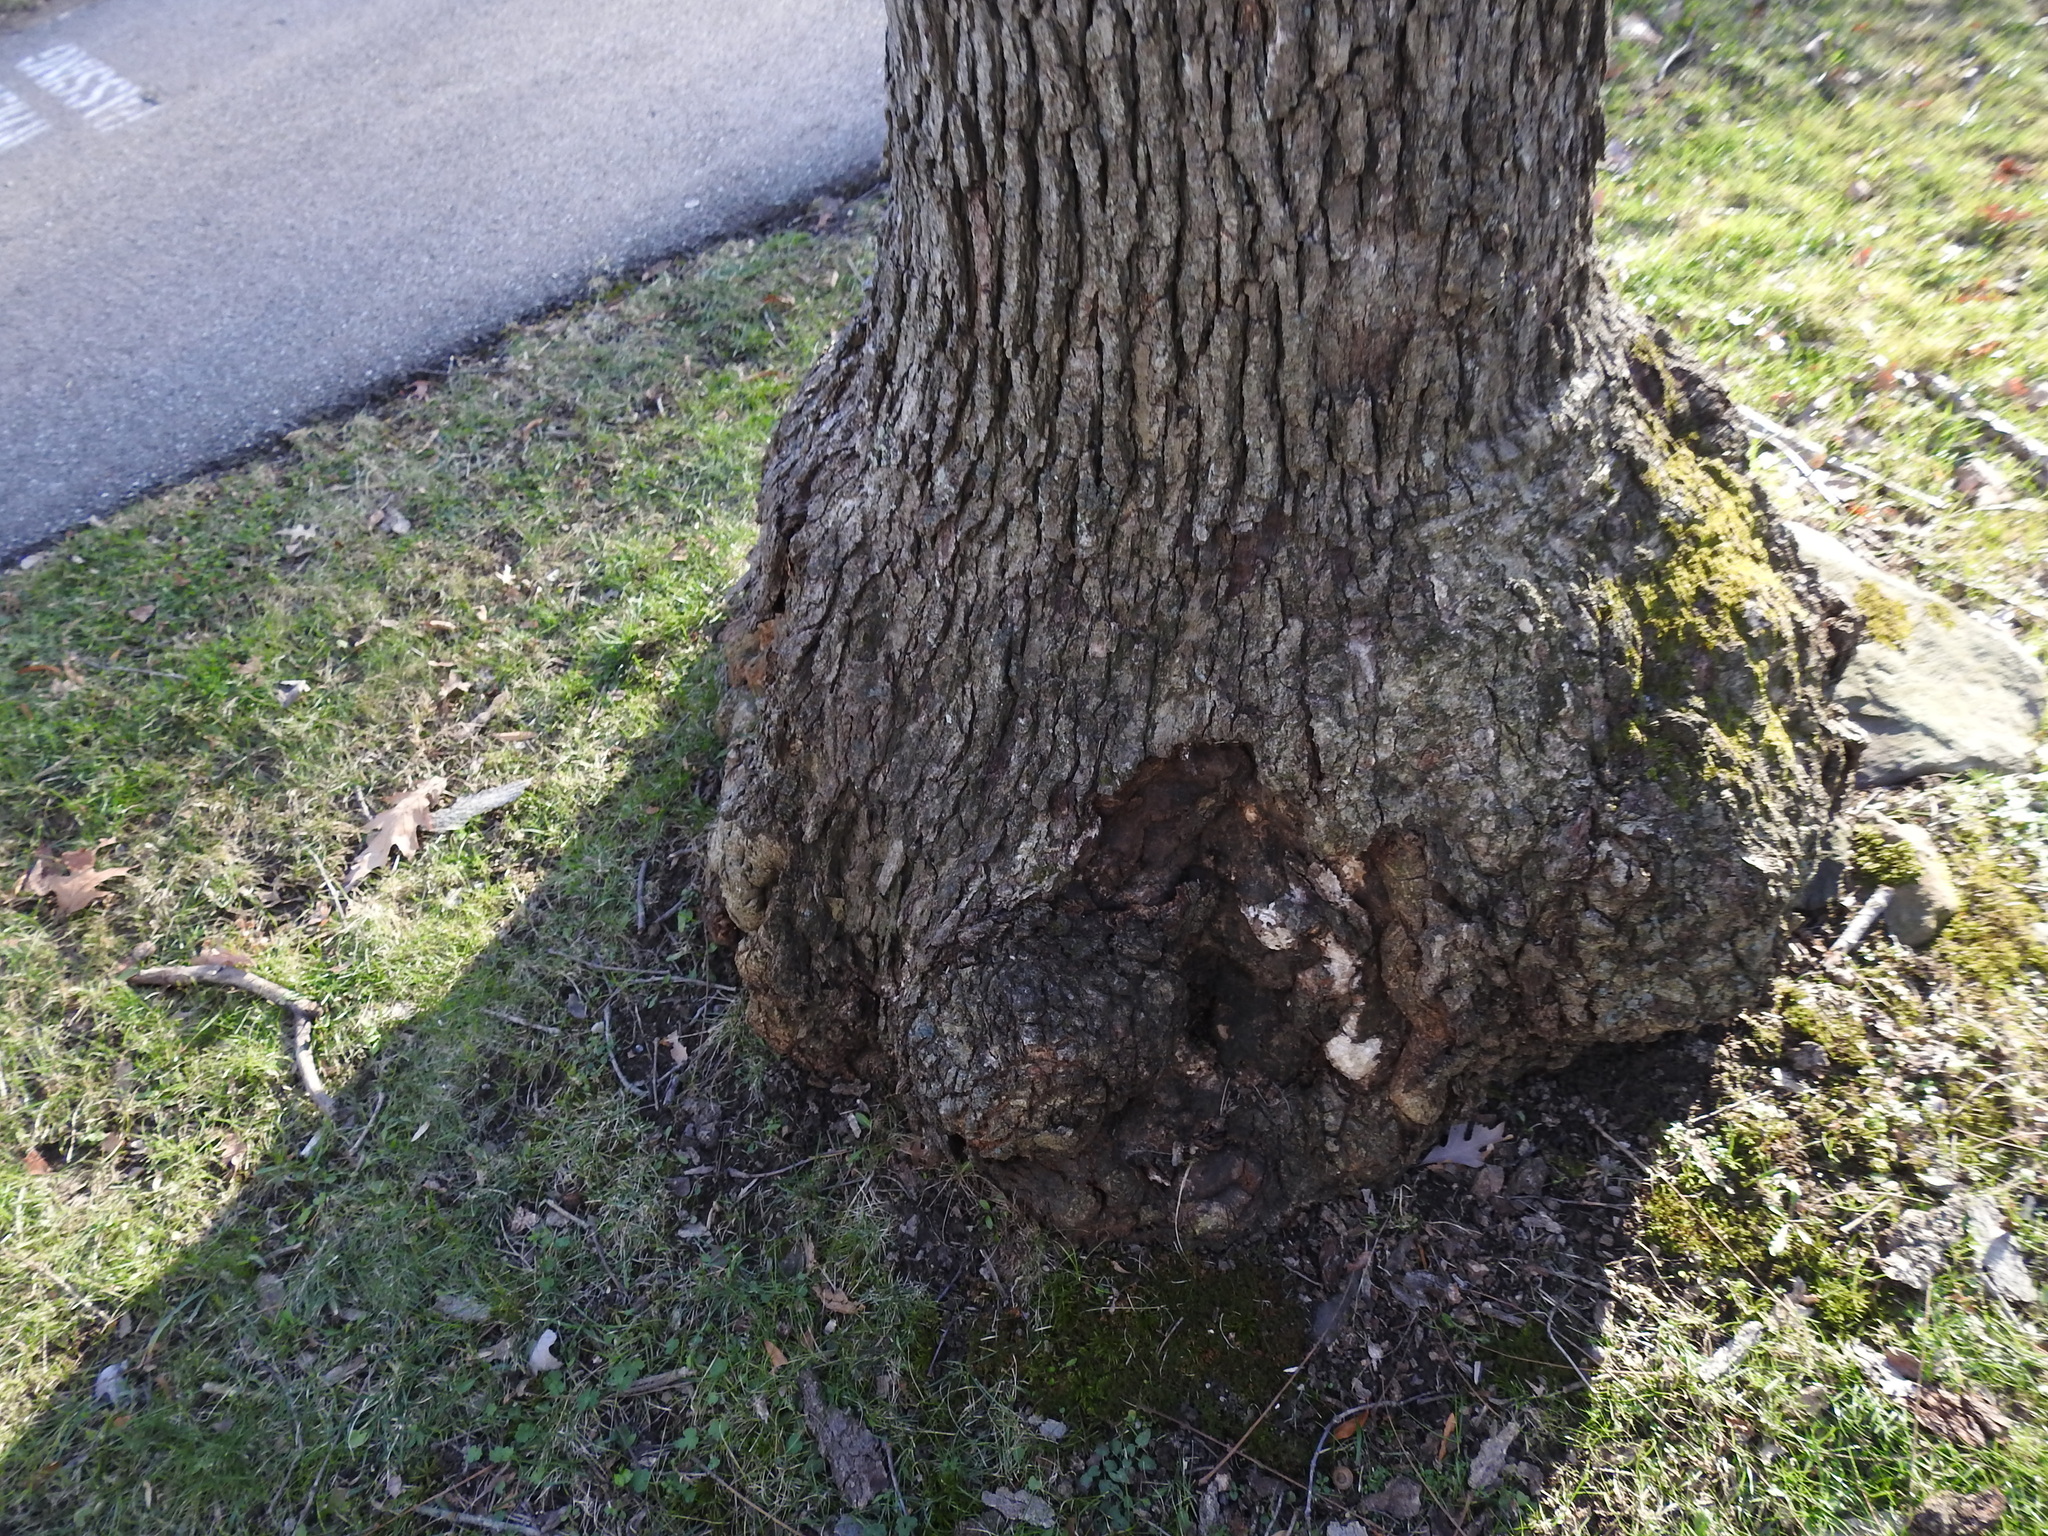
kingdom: Bacteria
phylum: Proteobacteria
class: Alphaproteobacteria
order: Rhizobiales
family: Rhizobiaceae
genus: Rhizobium
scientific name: Rhizobium Agrobacterium radiobacter
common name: Bacterial crown gall
